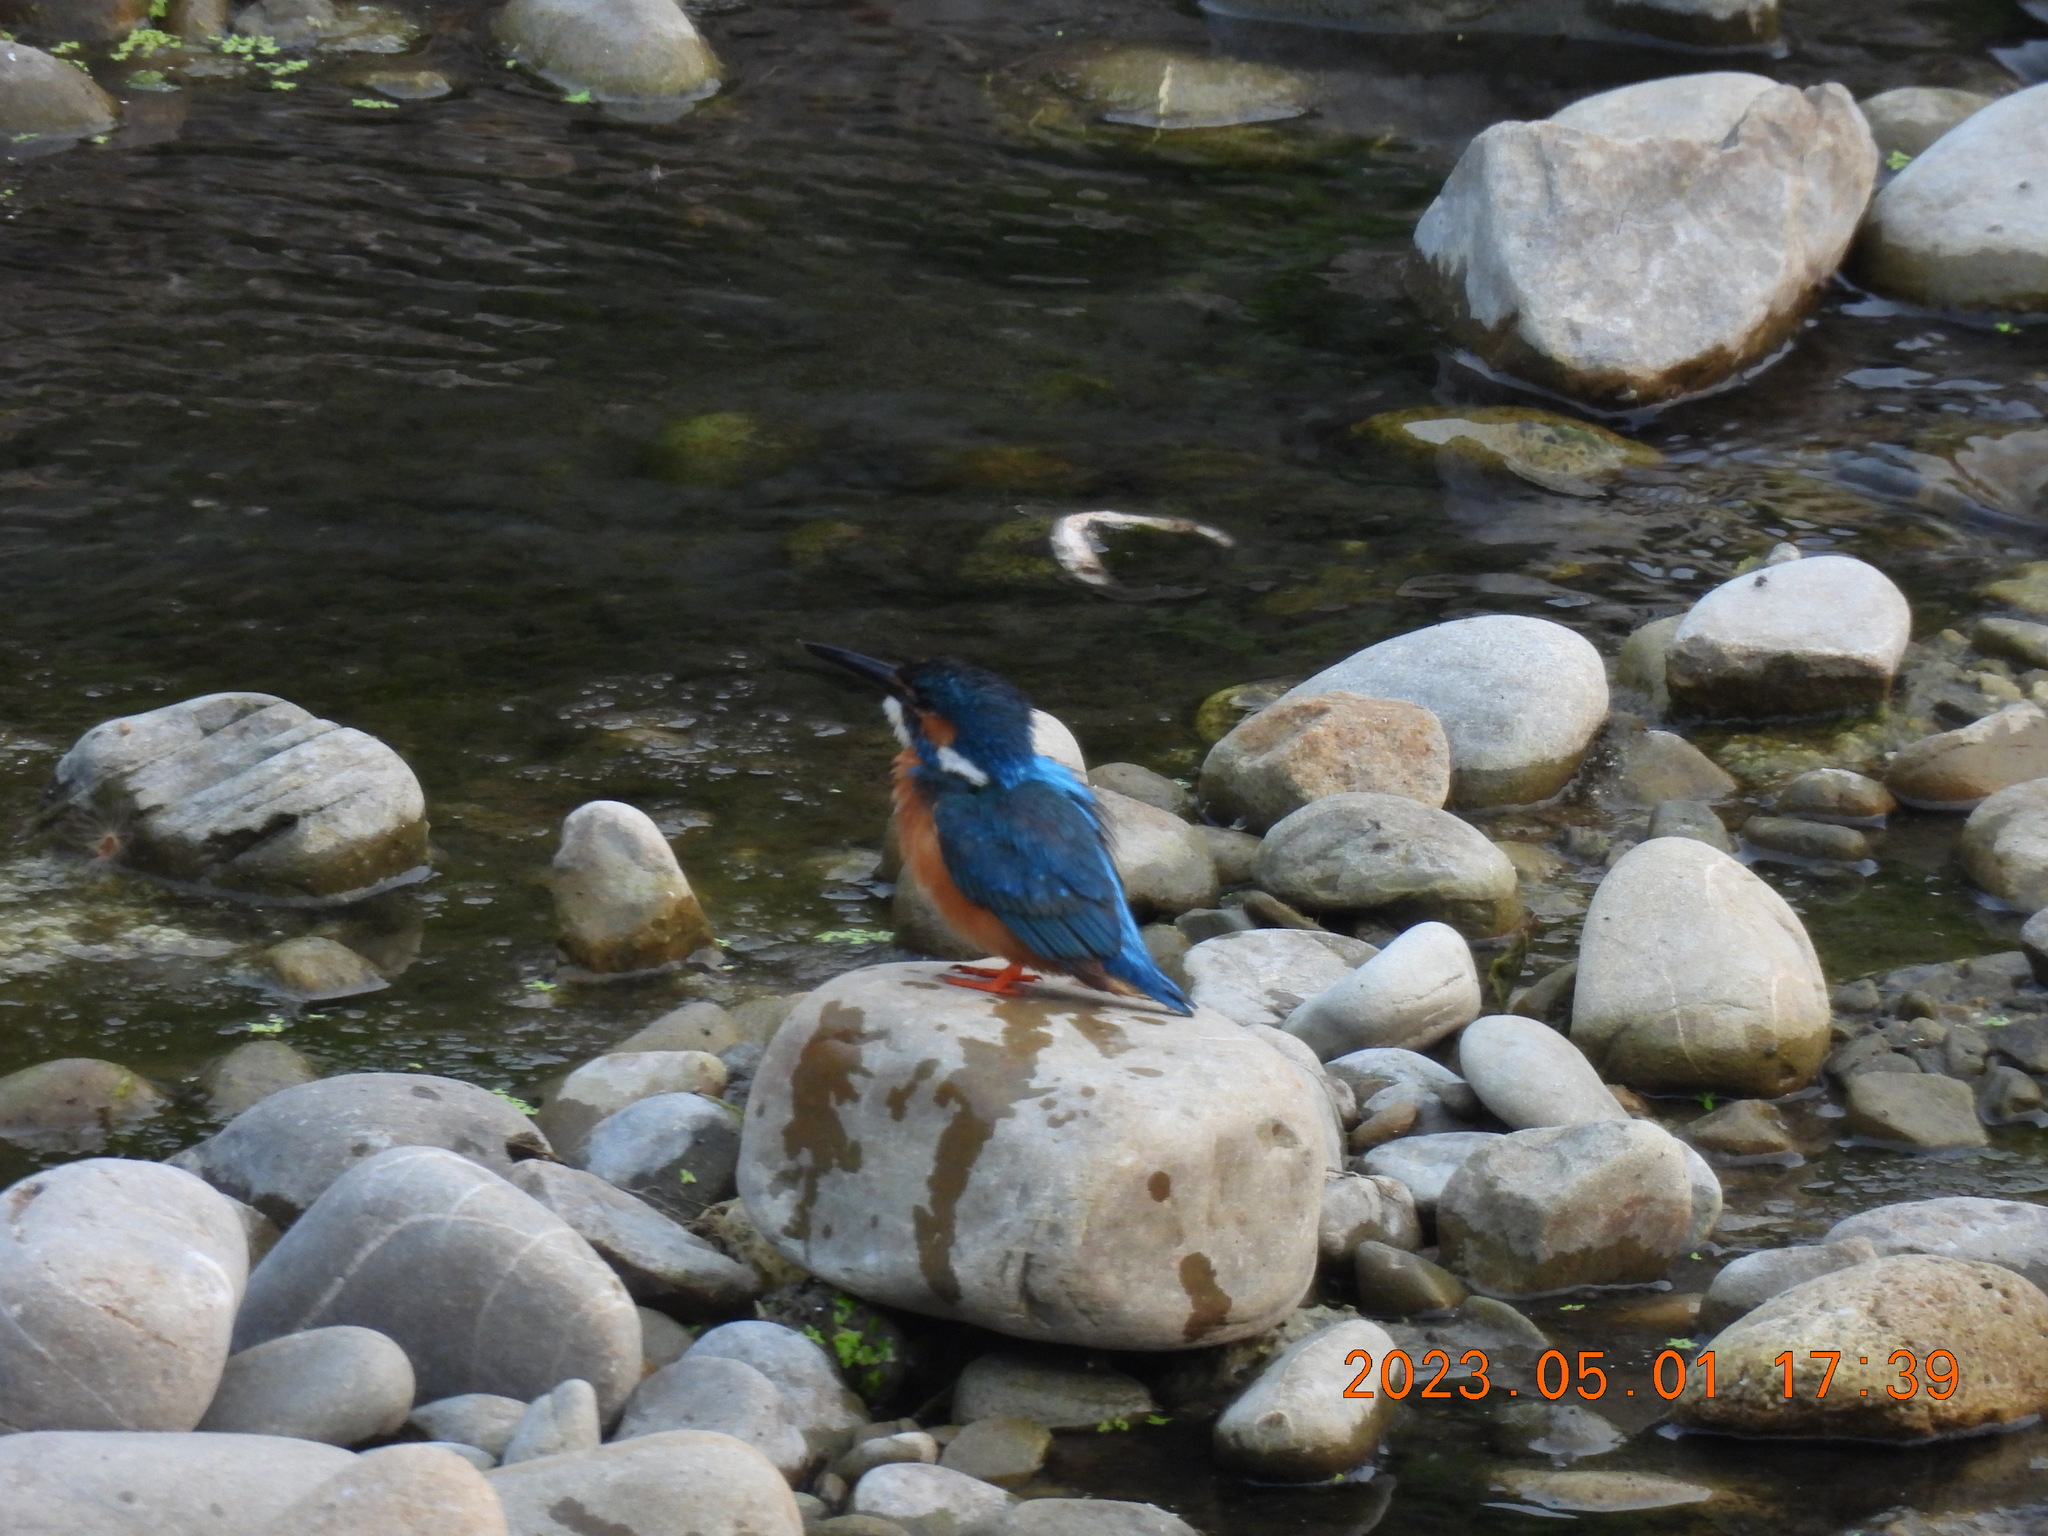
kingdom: Animalia
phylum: Chordata
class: Aves
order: Coraciiformes
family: Alcedinidae
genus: Alcedo
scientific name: Alcedo atthis
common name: Common kingfisher
